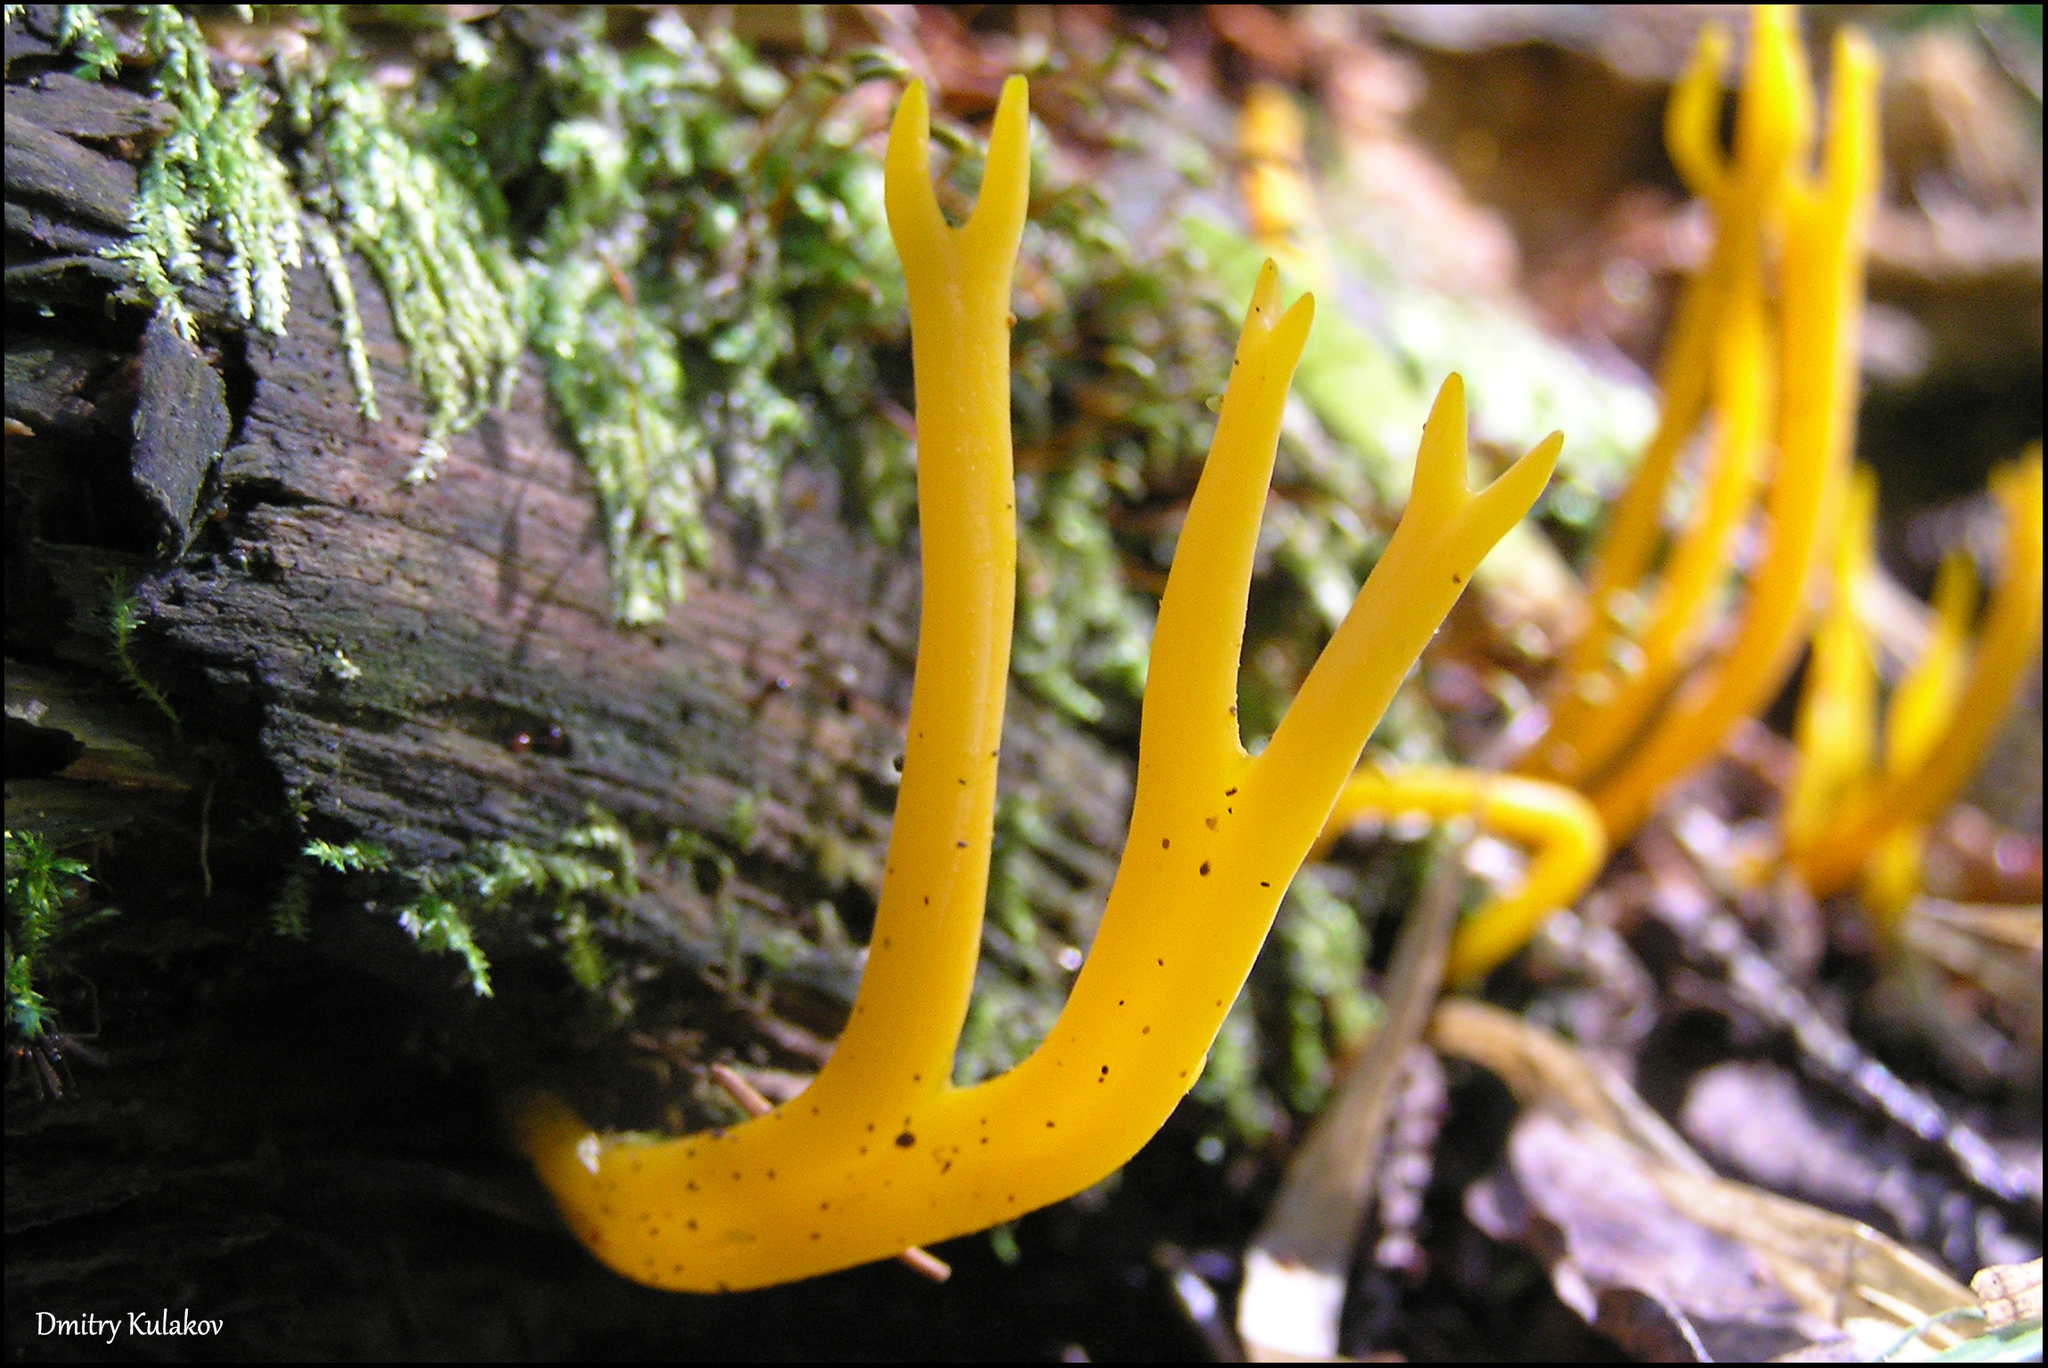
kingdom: Fungi
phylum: Basidiomycota
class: Dacrymycetes
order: Dacrymycetales
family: Dacrymycetaceae
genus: Calocera
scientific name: Calocera viscosa
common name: Yellow stagshorn
